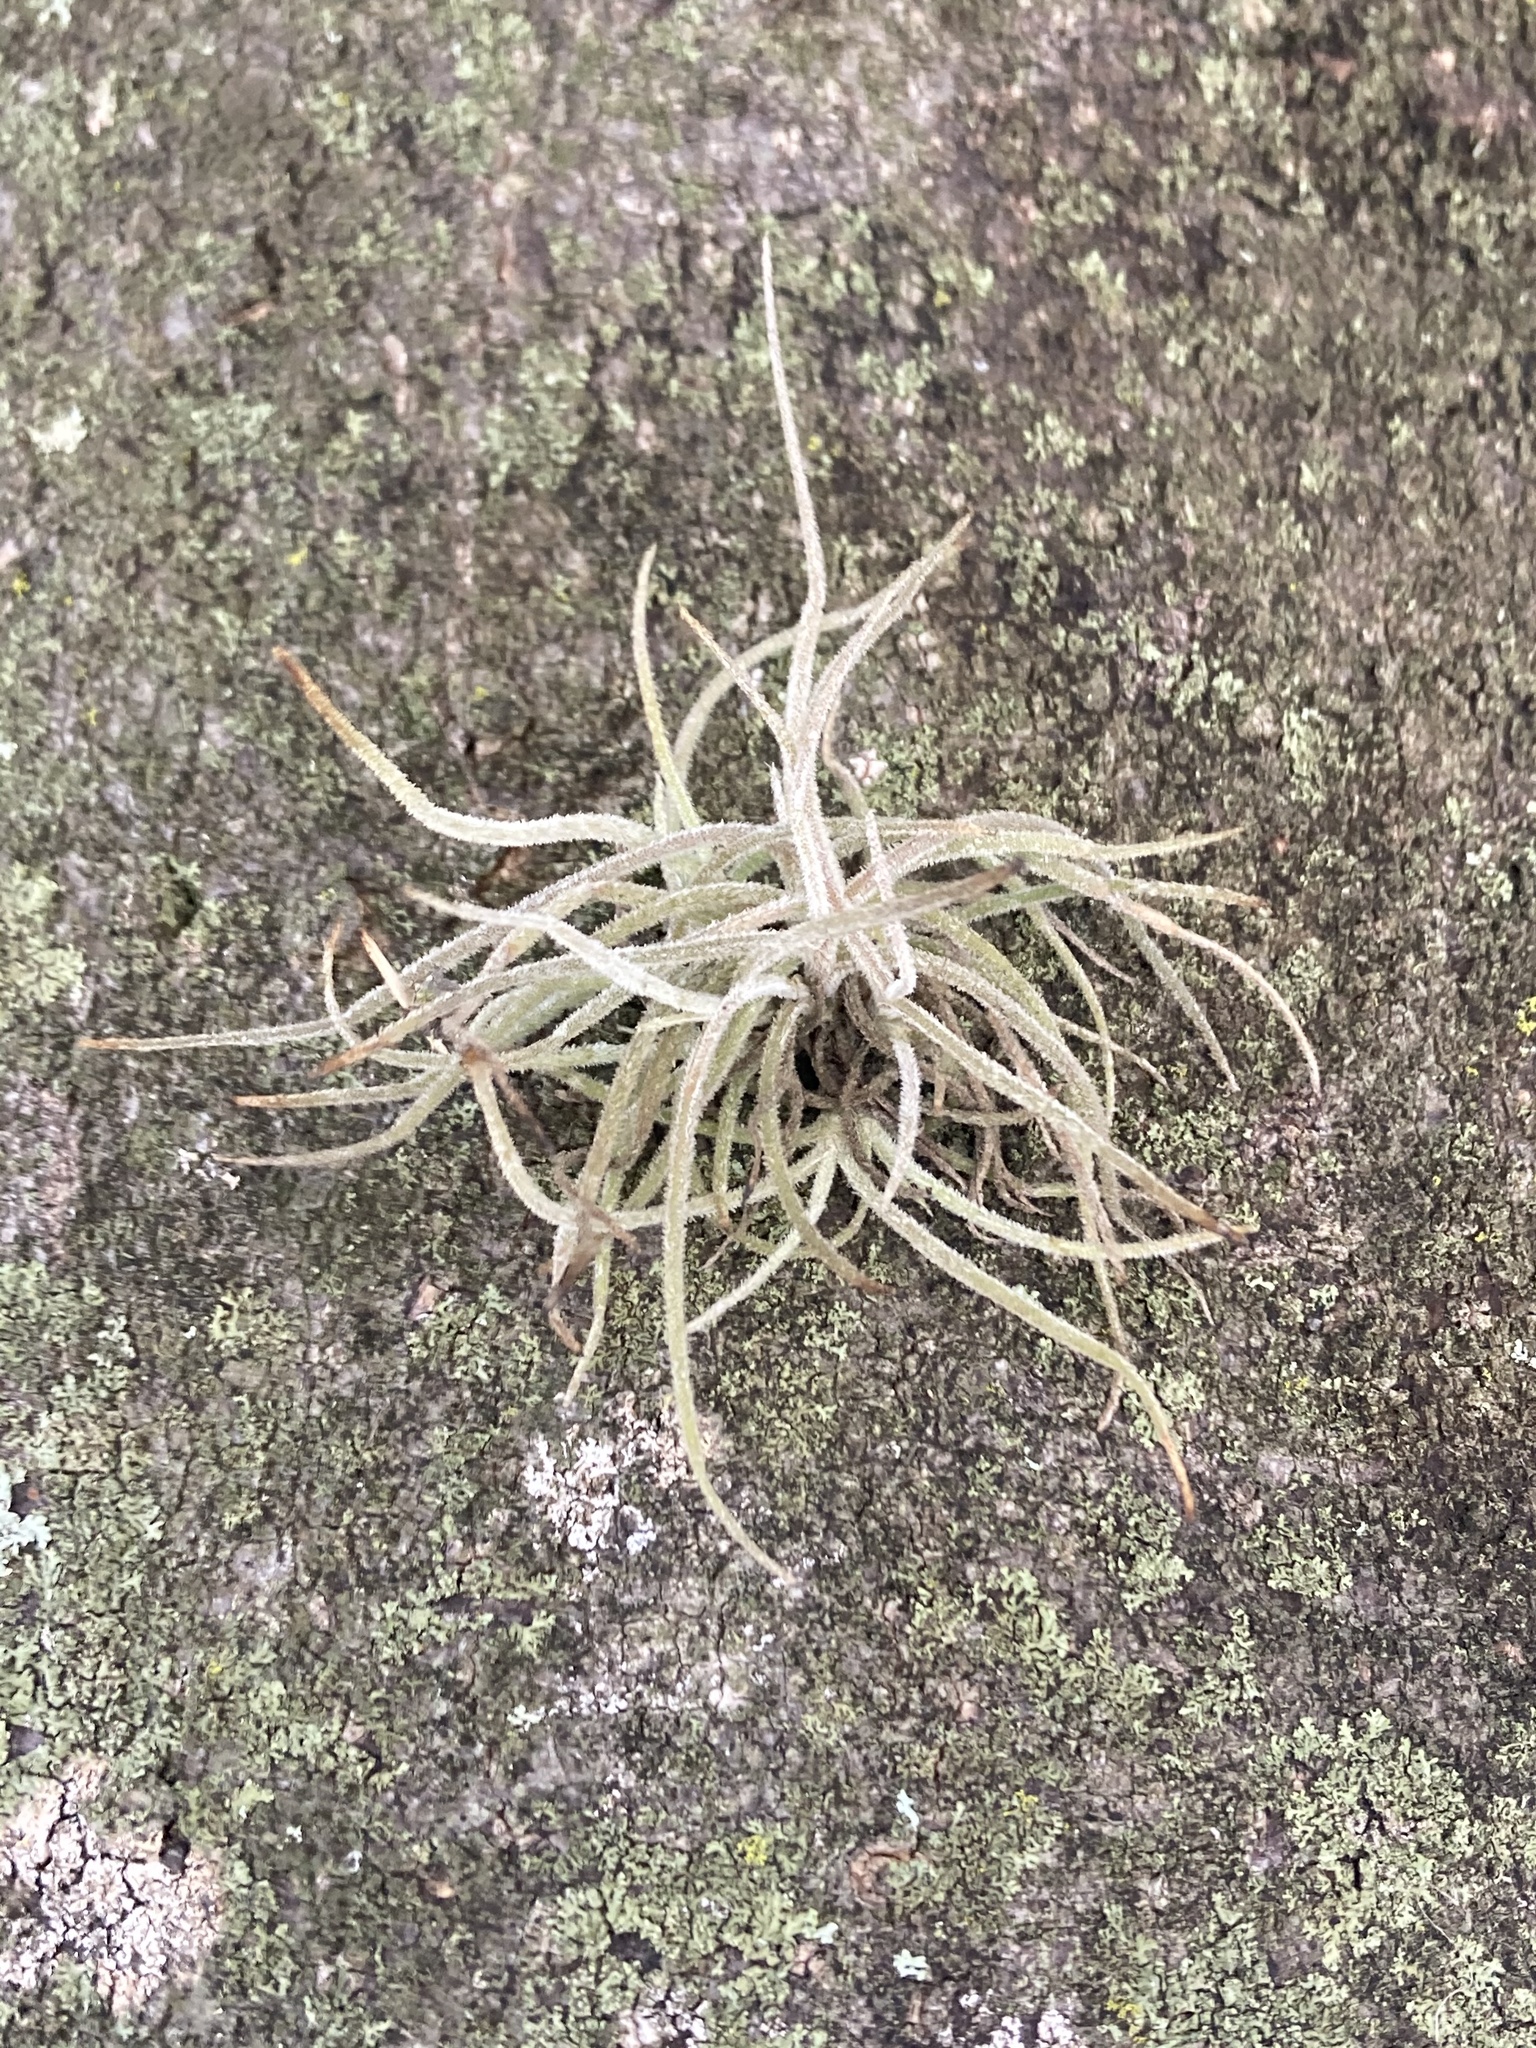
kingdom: Plantae
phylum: Tracheophyta
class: Liliopsida
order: Poales
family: Bromeliaceae
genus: Tillandsia
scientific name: Tillandsia recurvata
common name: Small ballmoss
